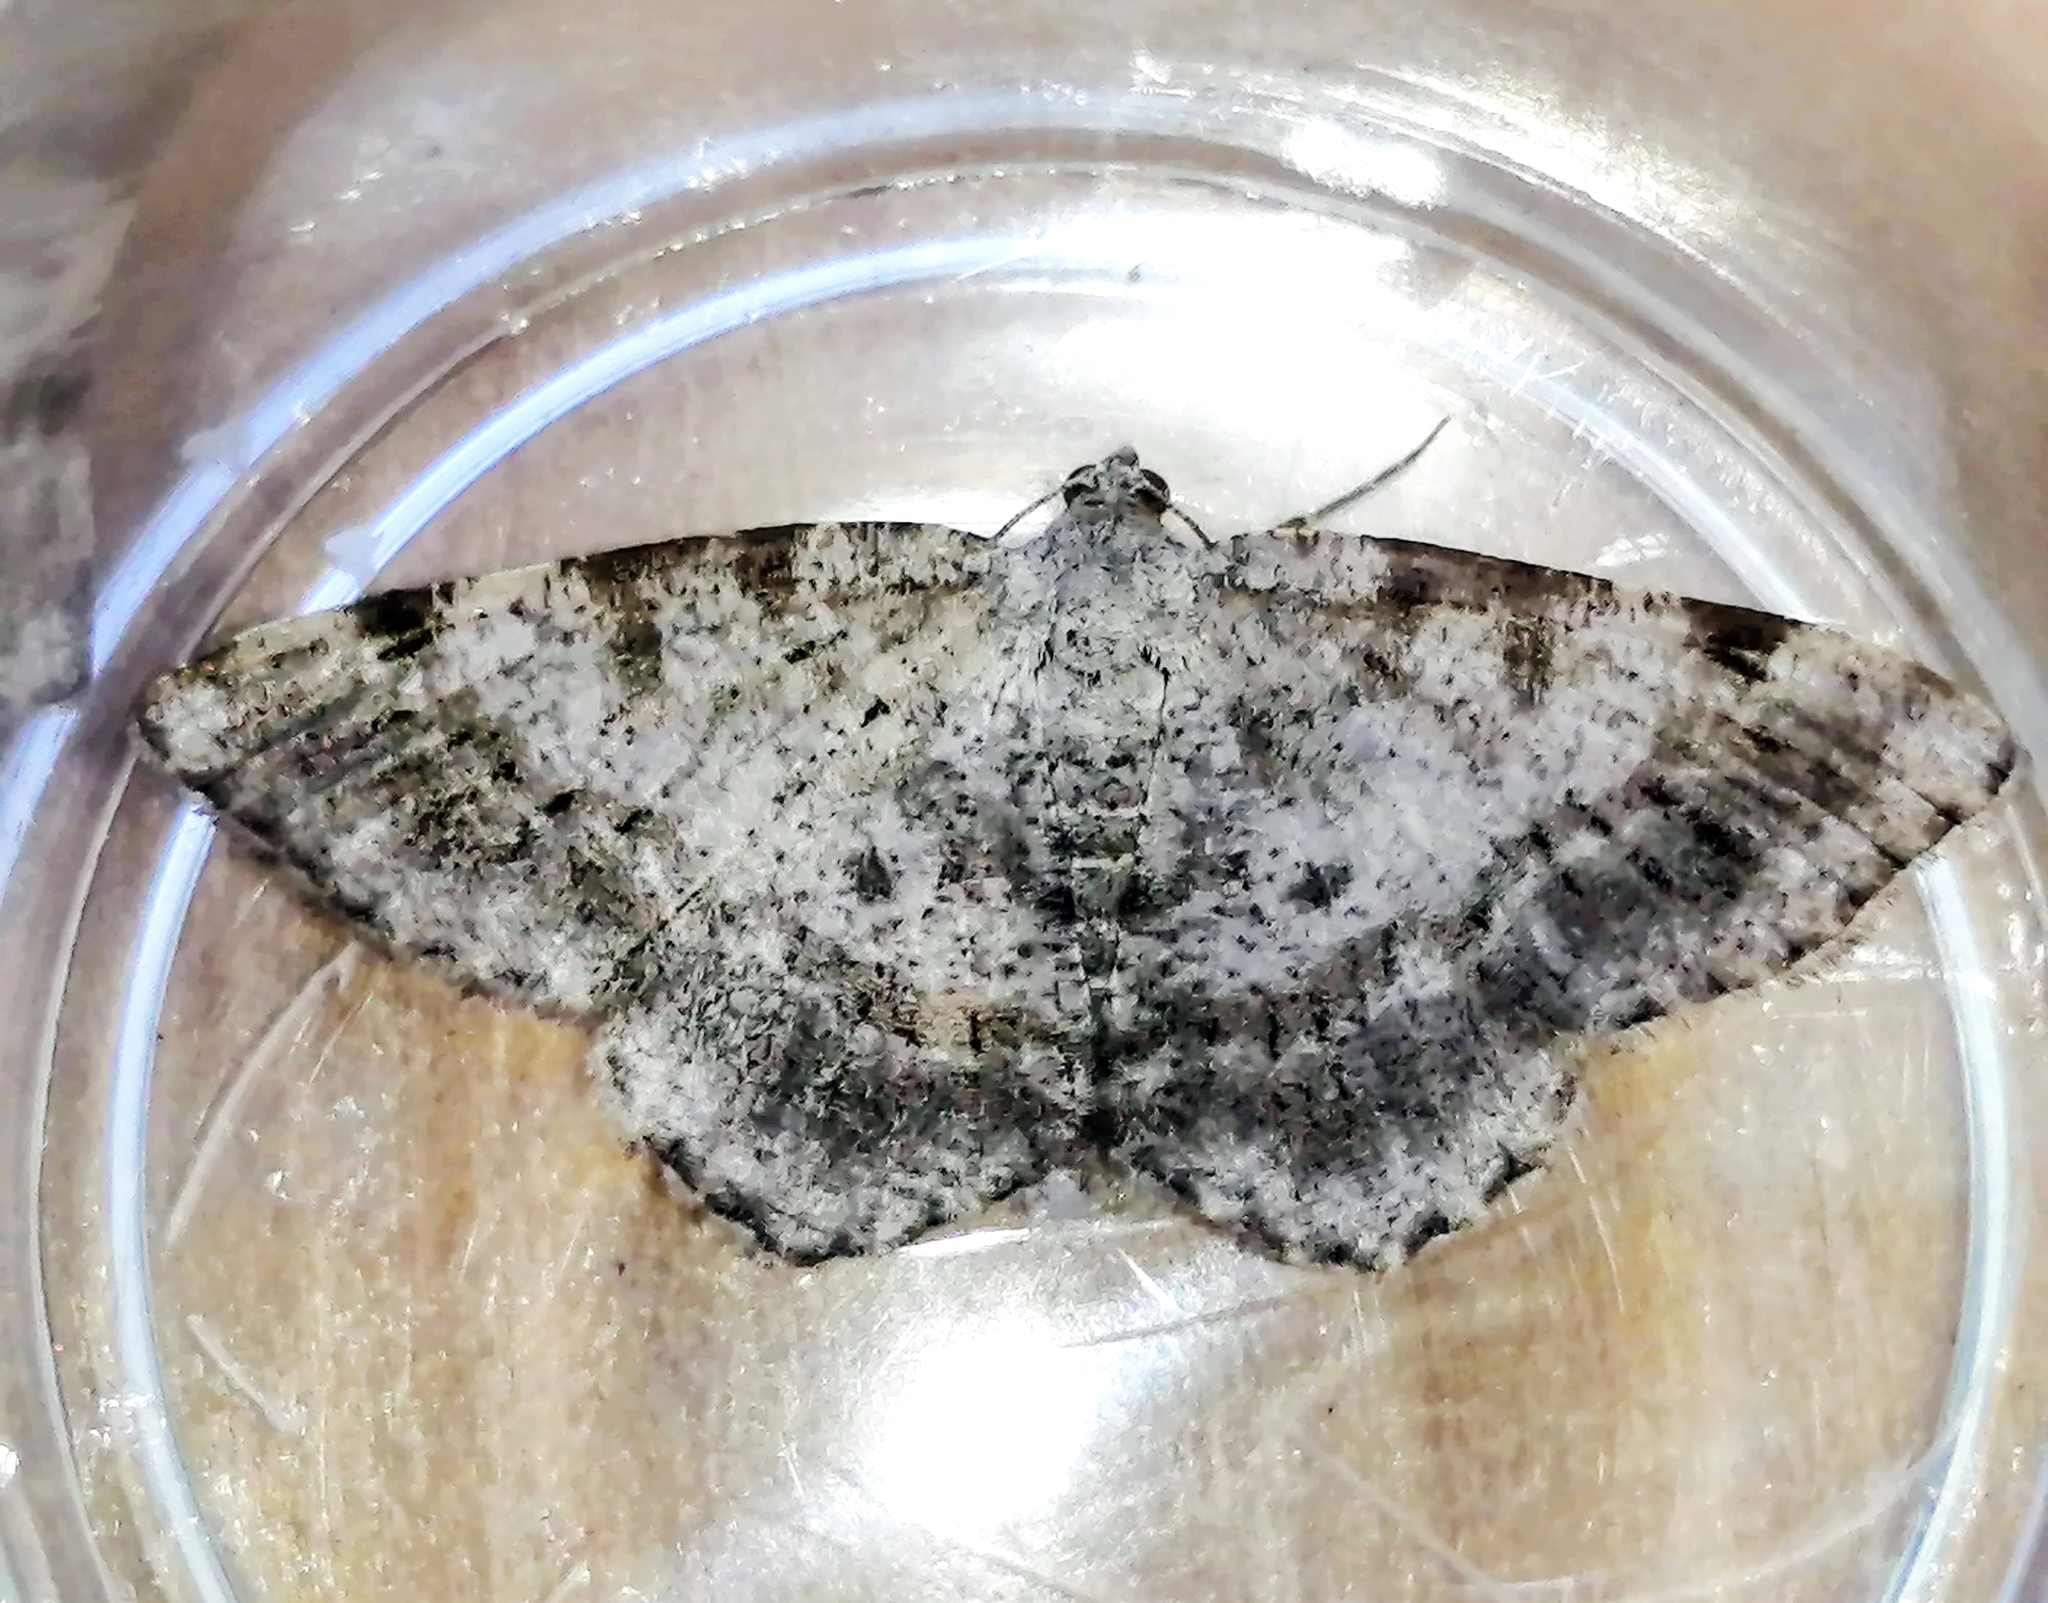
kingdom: Animalia
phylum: Arthropoda
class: Insecta
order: Lepidoptera
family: Geometridae
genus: Digrammia
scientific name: Digrammia ocellinata
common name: Faint-spotted angle
